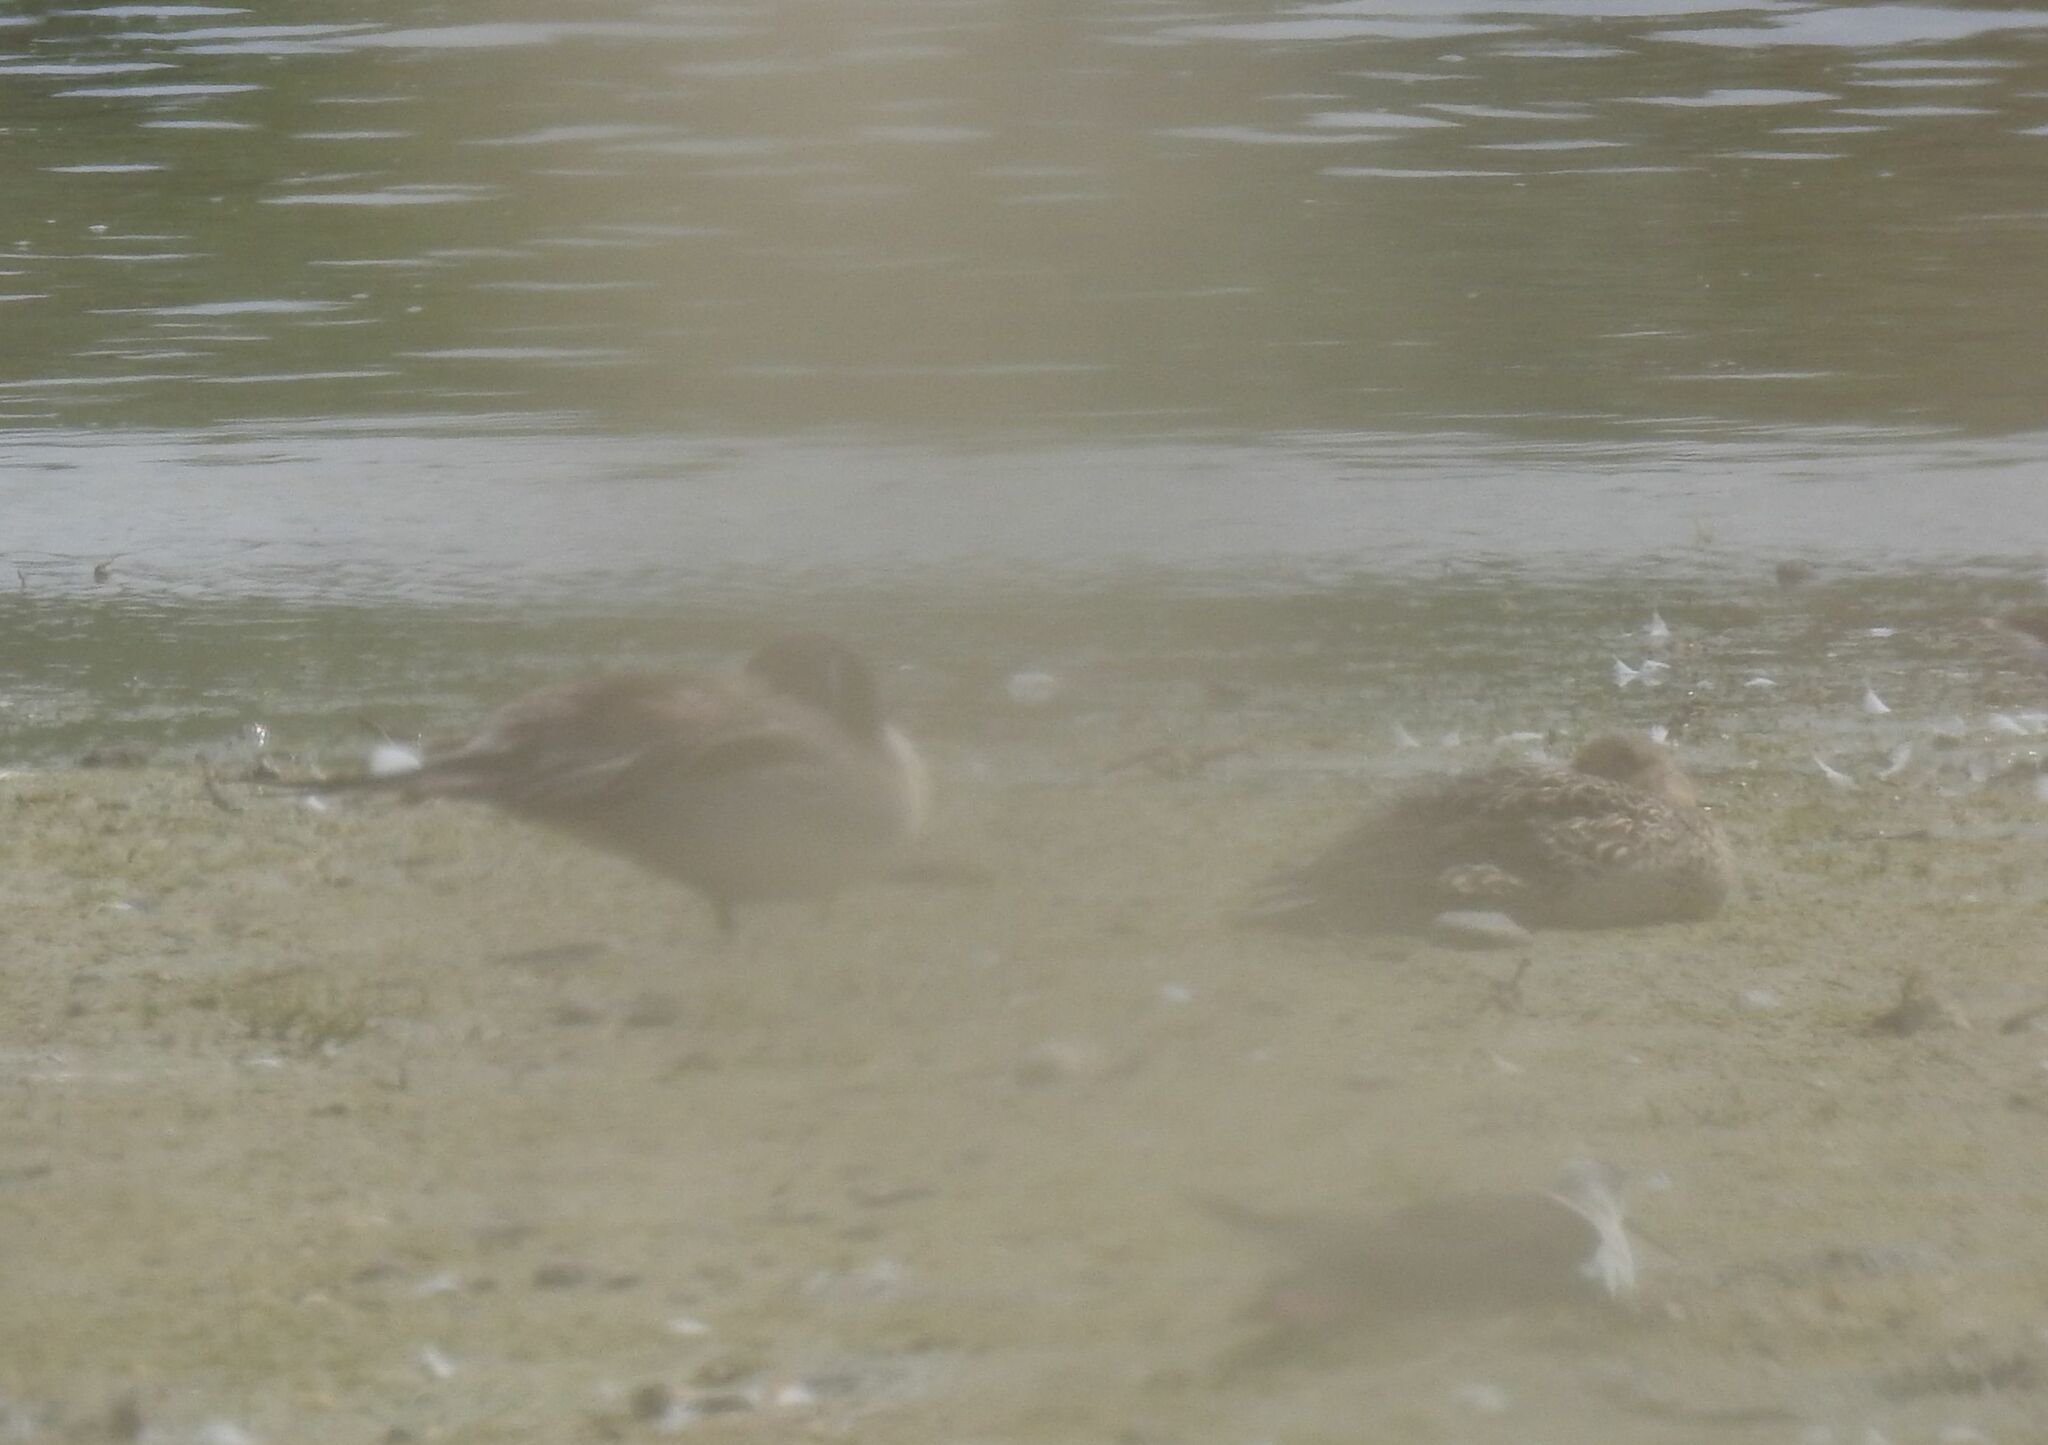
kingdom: Animalia
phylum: Chordata
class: Aves
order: Anseriformes
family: Anatidae
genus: Anas
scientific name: Anas acuta
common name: Northern pintail
